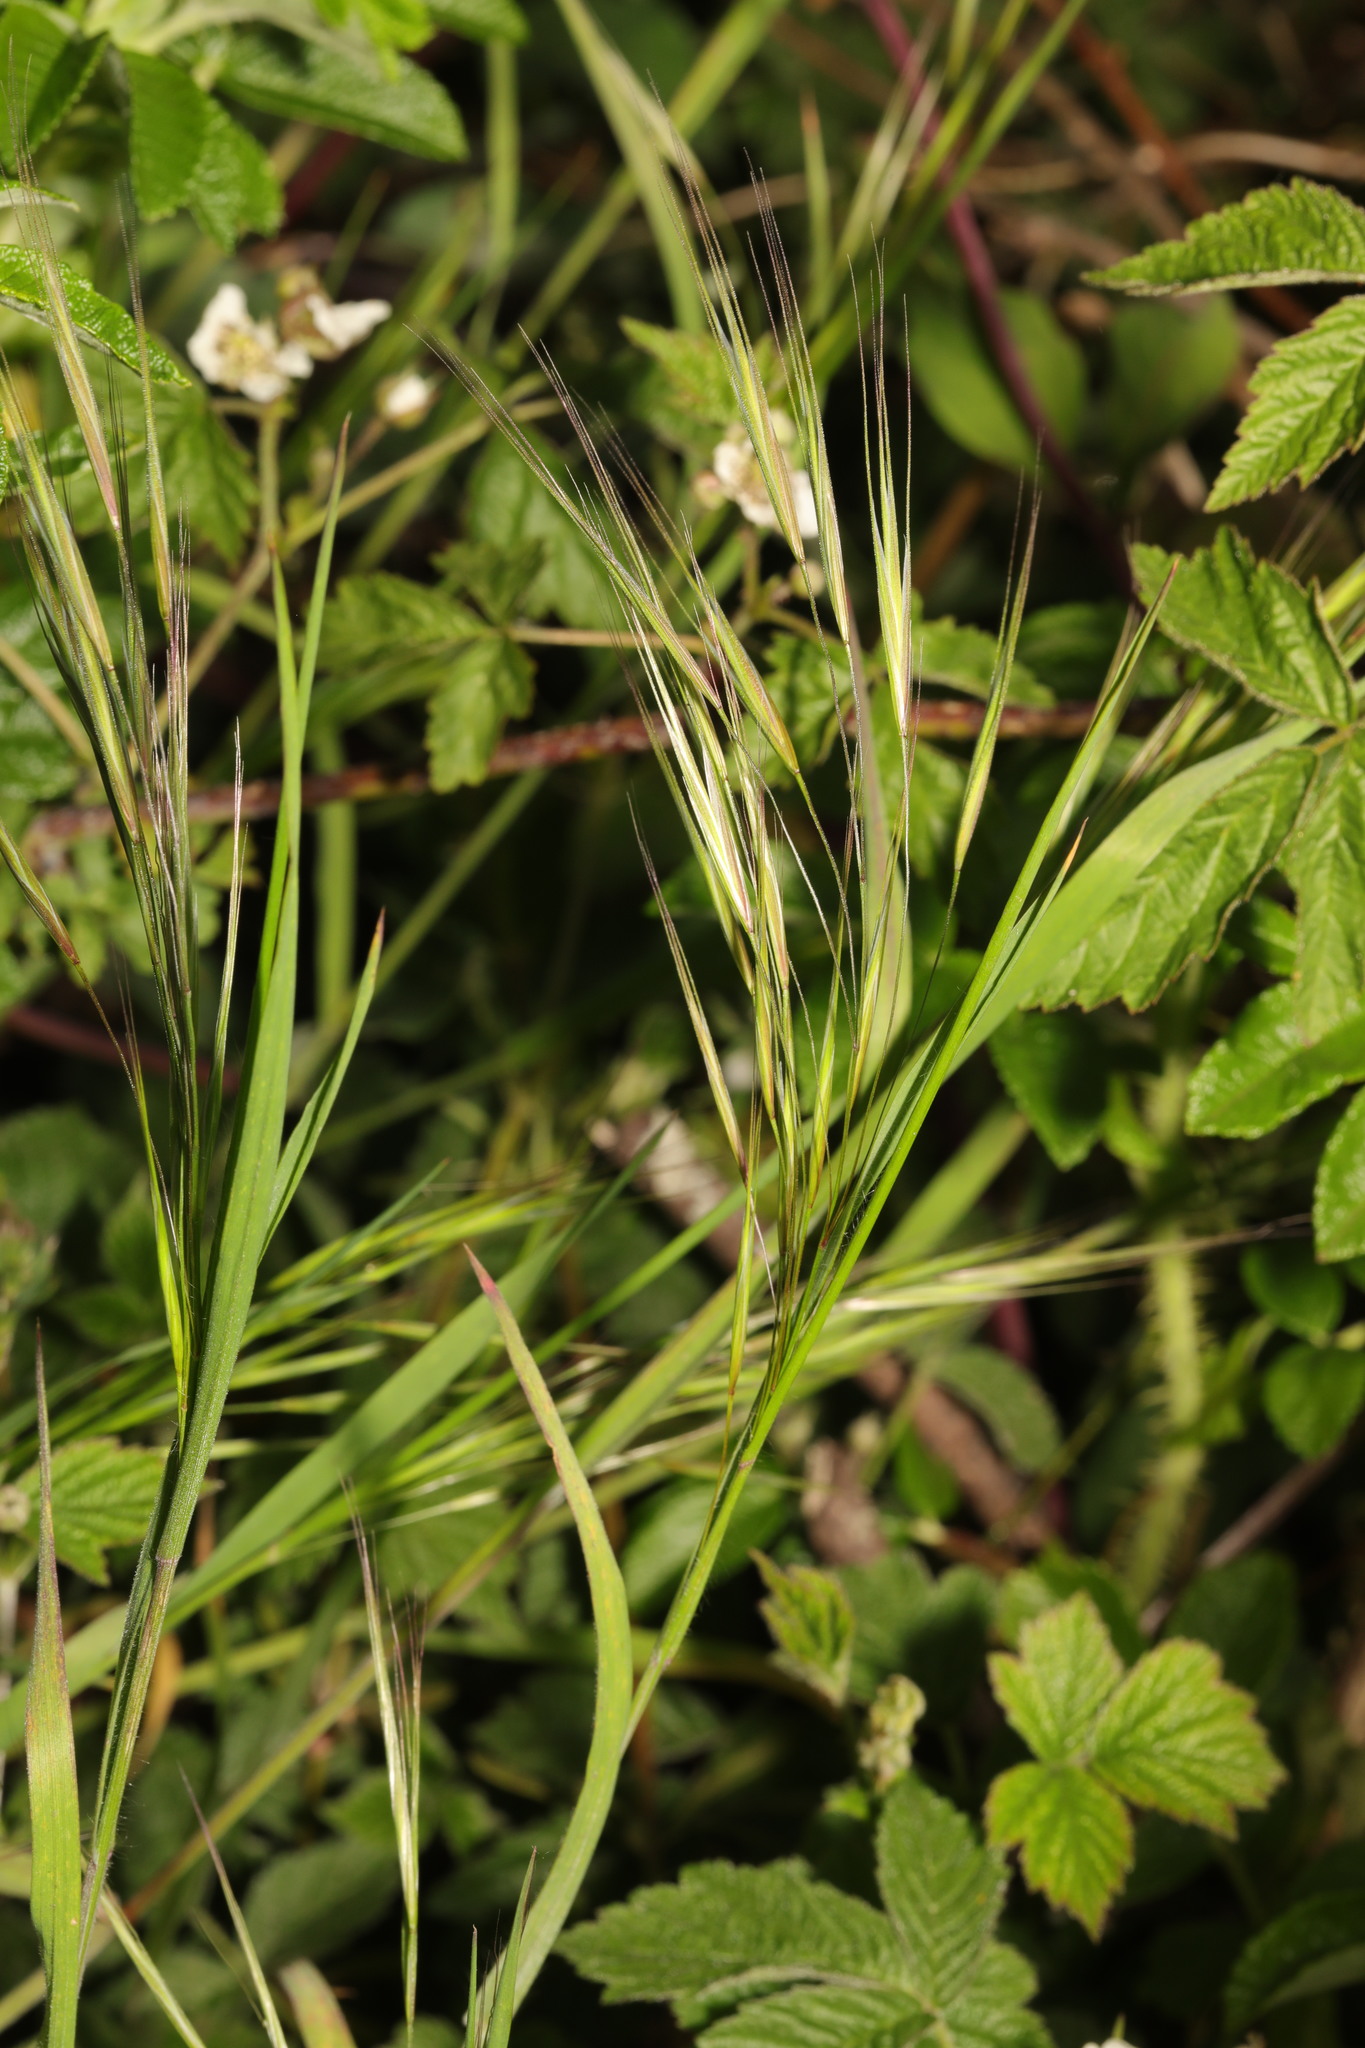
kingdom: Plantae
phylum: Tracheophyta
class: Liliopsida
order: Poales
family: Poaceae
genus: Bromus
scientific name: Bromus sterilis
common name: Poverty brome
